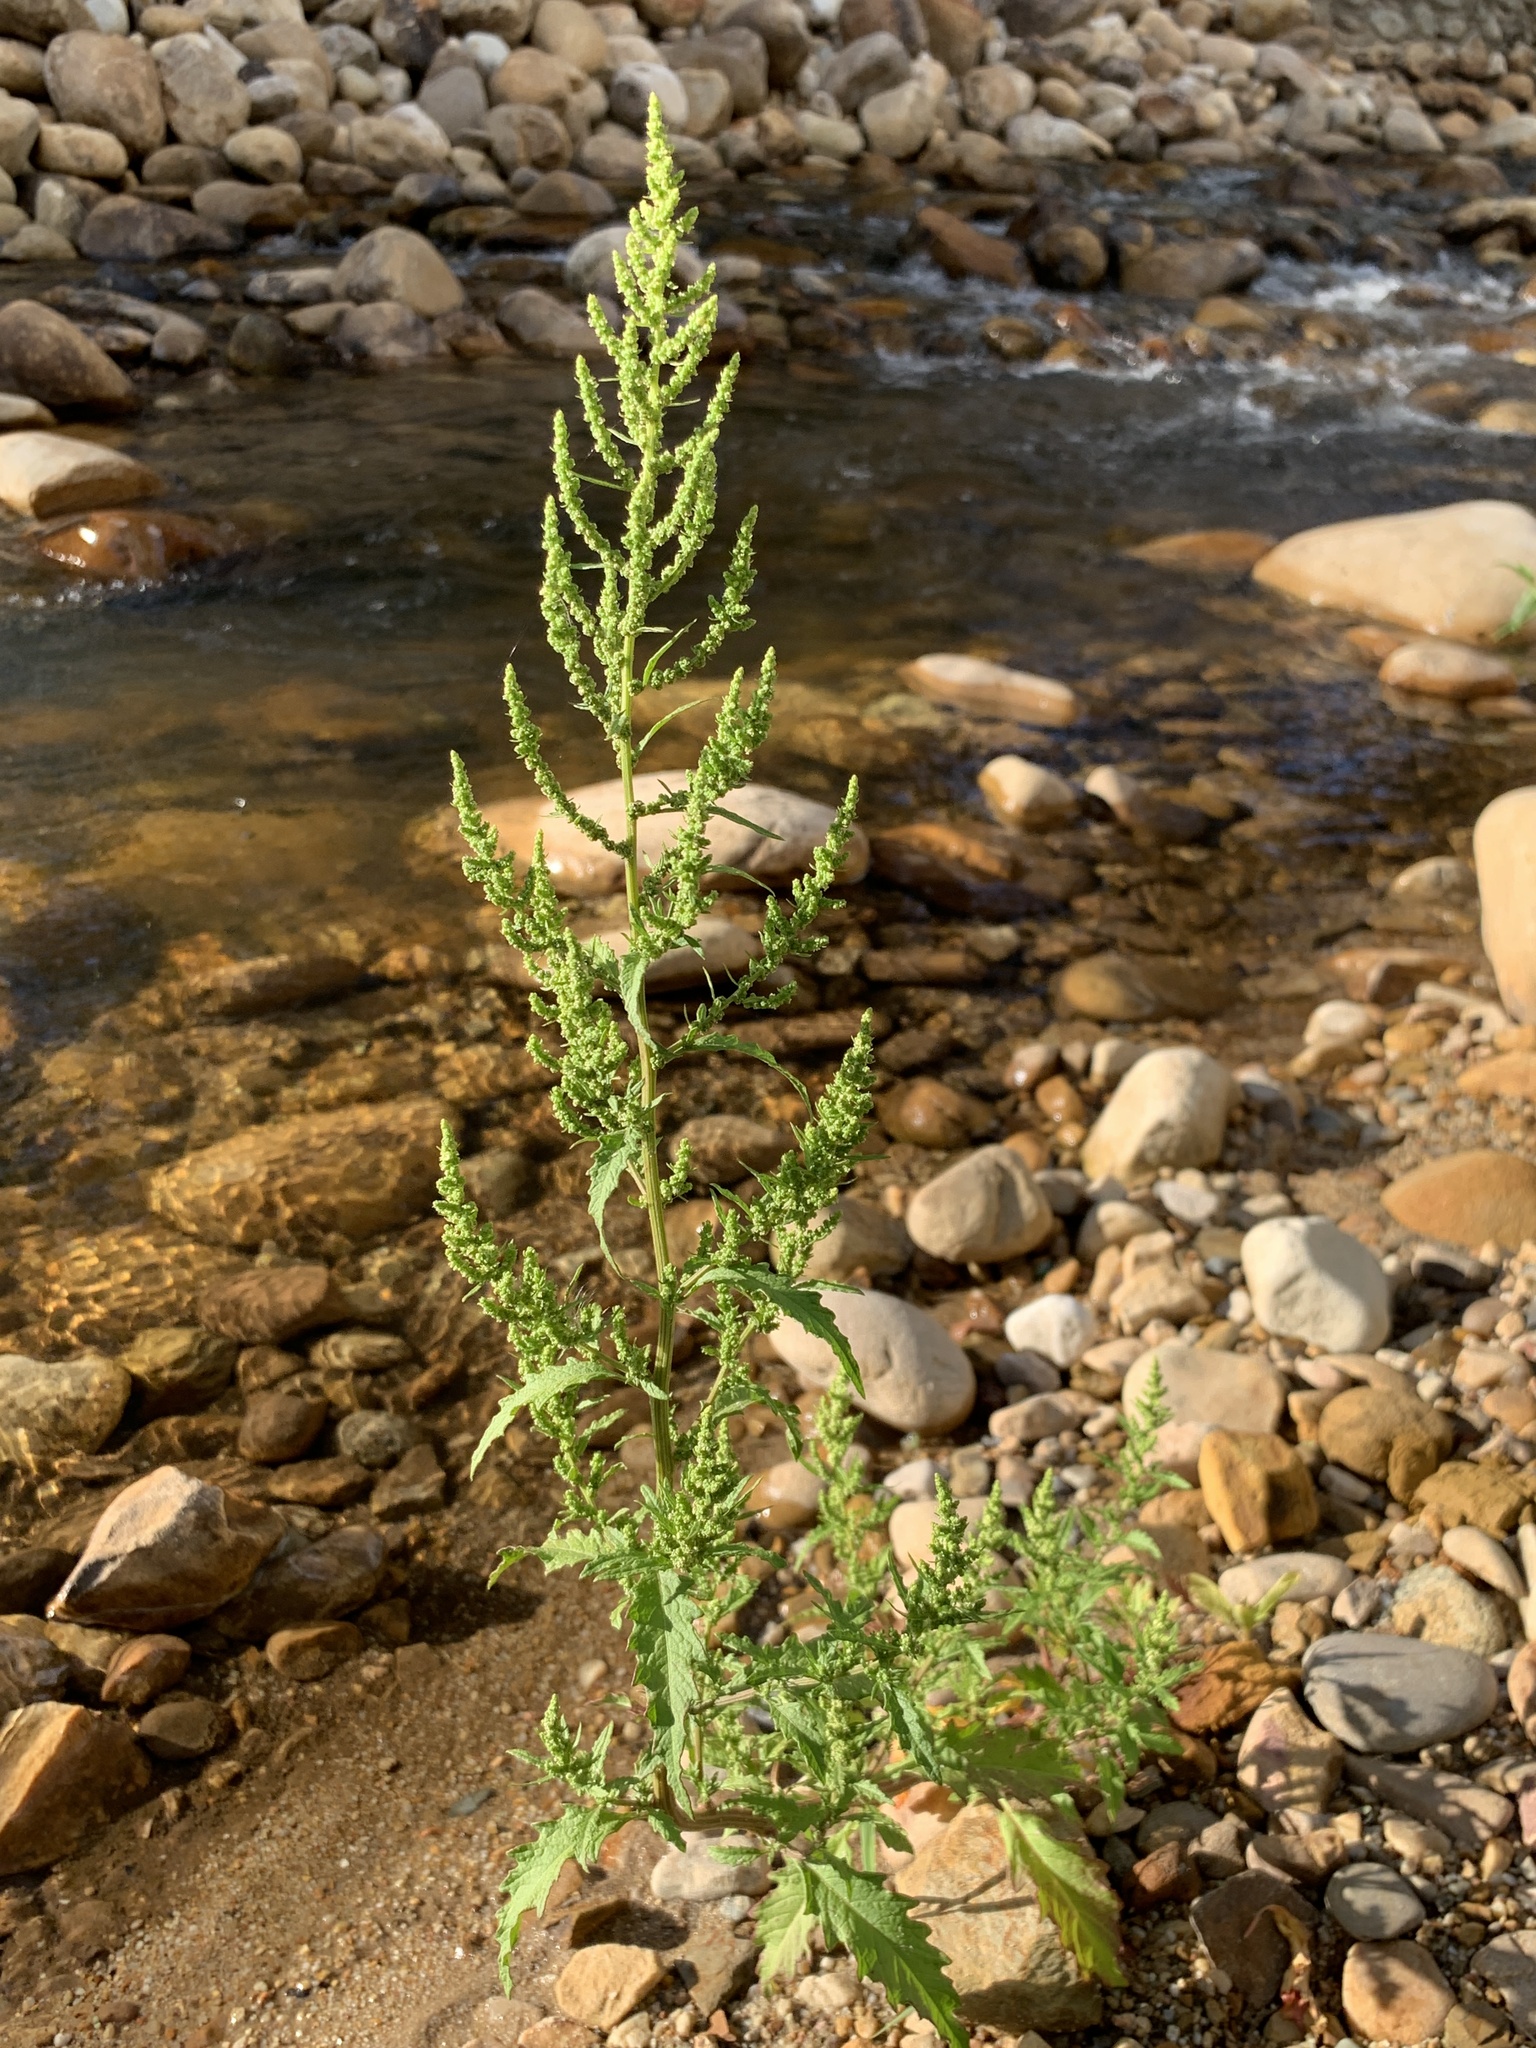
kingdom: Plantae
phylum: Tracheophyta
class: Magnoliopsida
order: Caryophyllales
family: Amaranthaceae
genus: Dysphania
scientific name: Dysphania ambrosioides
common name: Wormseed
